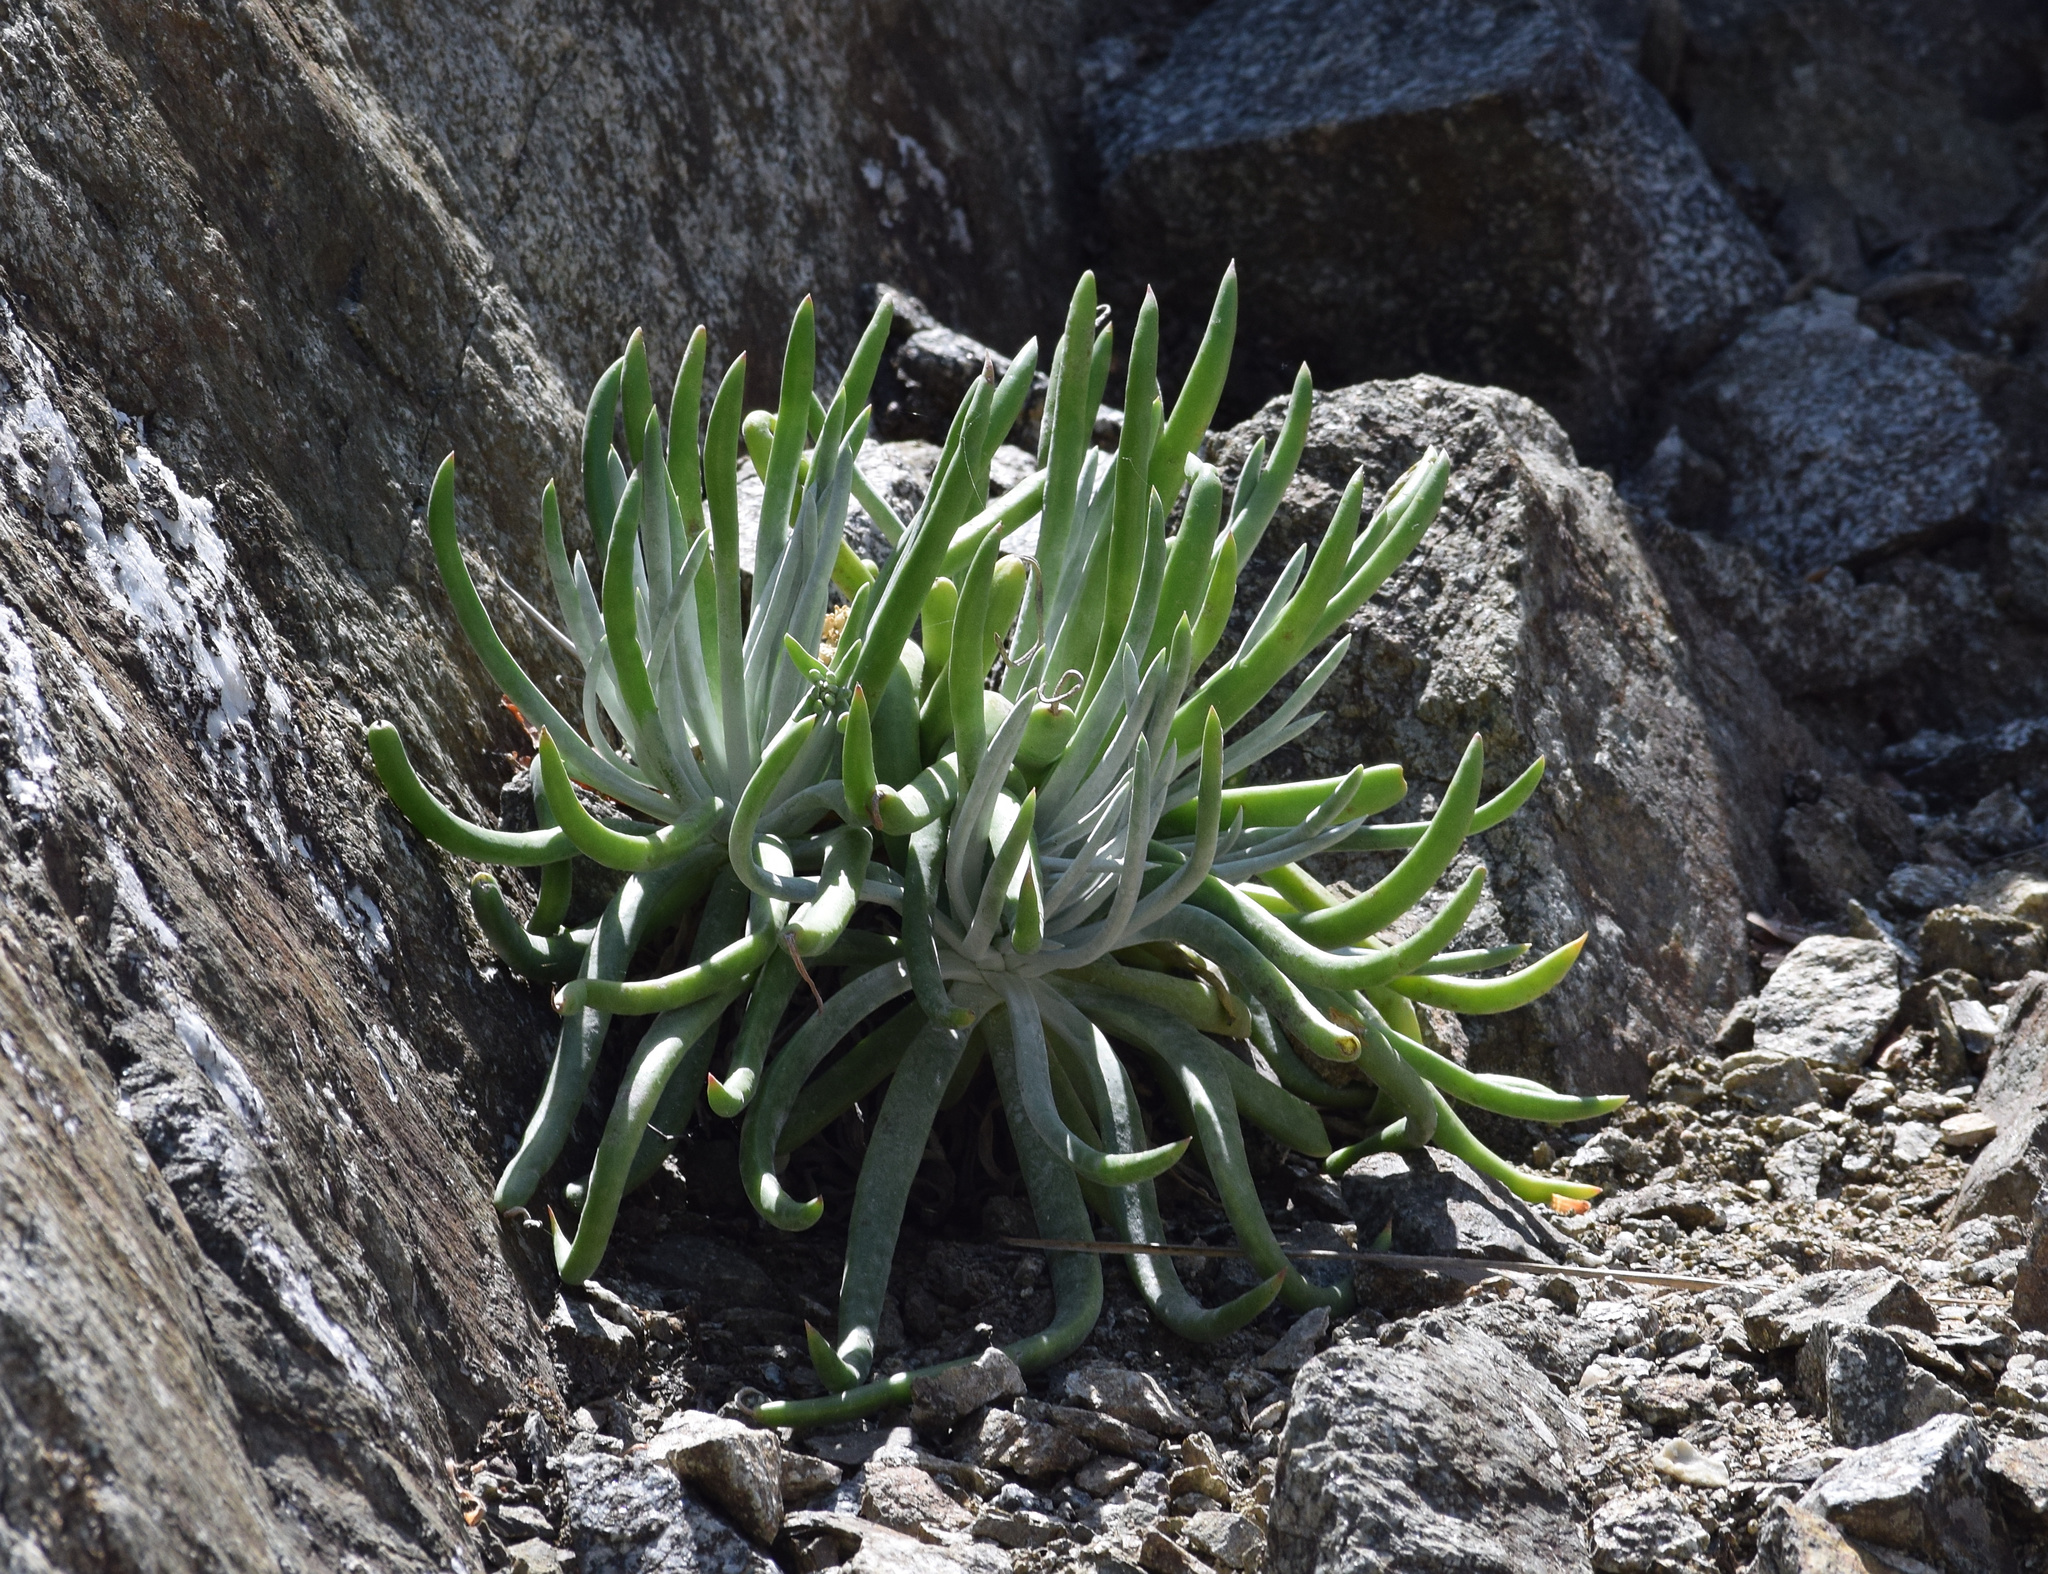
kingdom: Plantae
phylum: Tracheophyta
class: Magnoliopsida
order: Saxifragales
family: Crassulaceae
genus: Dudleya
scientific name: Dudleya densiflora
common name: San gabriel mountains dudleya
